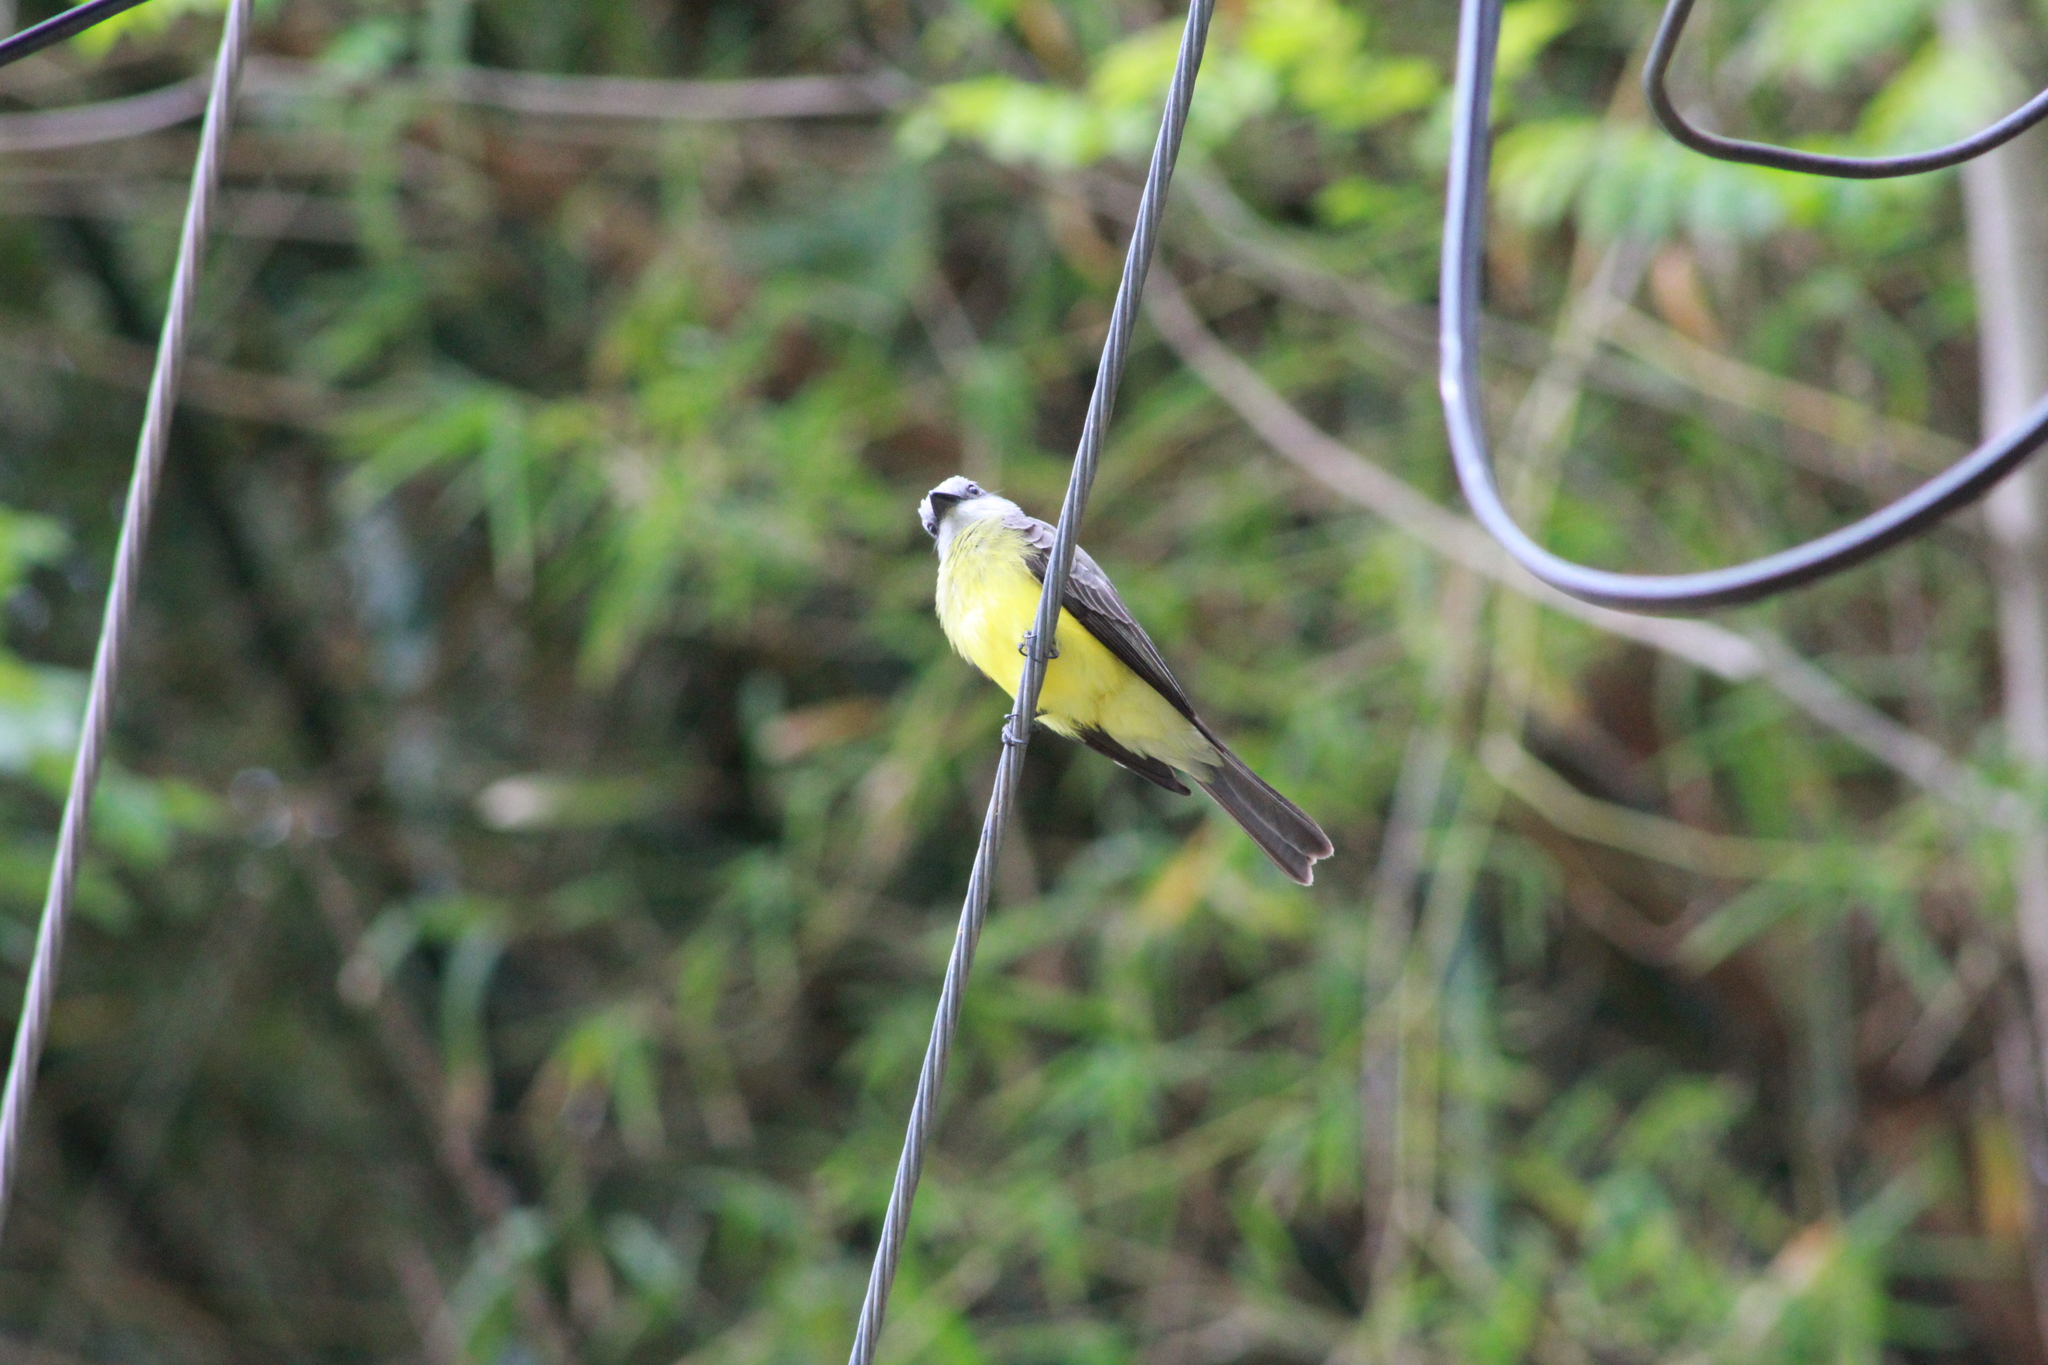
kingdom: Animalia
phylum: Chordata
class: Aves
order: Passeriformes
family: Tyrannidae
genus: Tyrannus
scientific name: Tyrannus melancholicus
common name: Tropical kingbird
